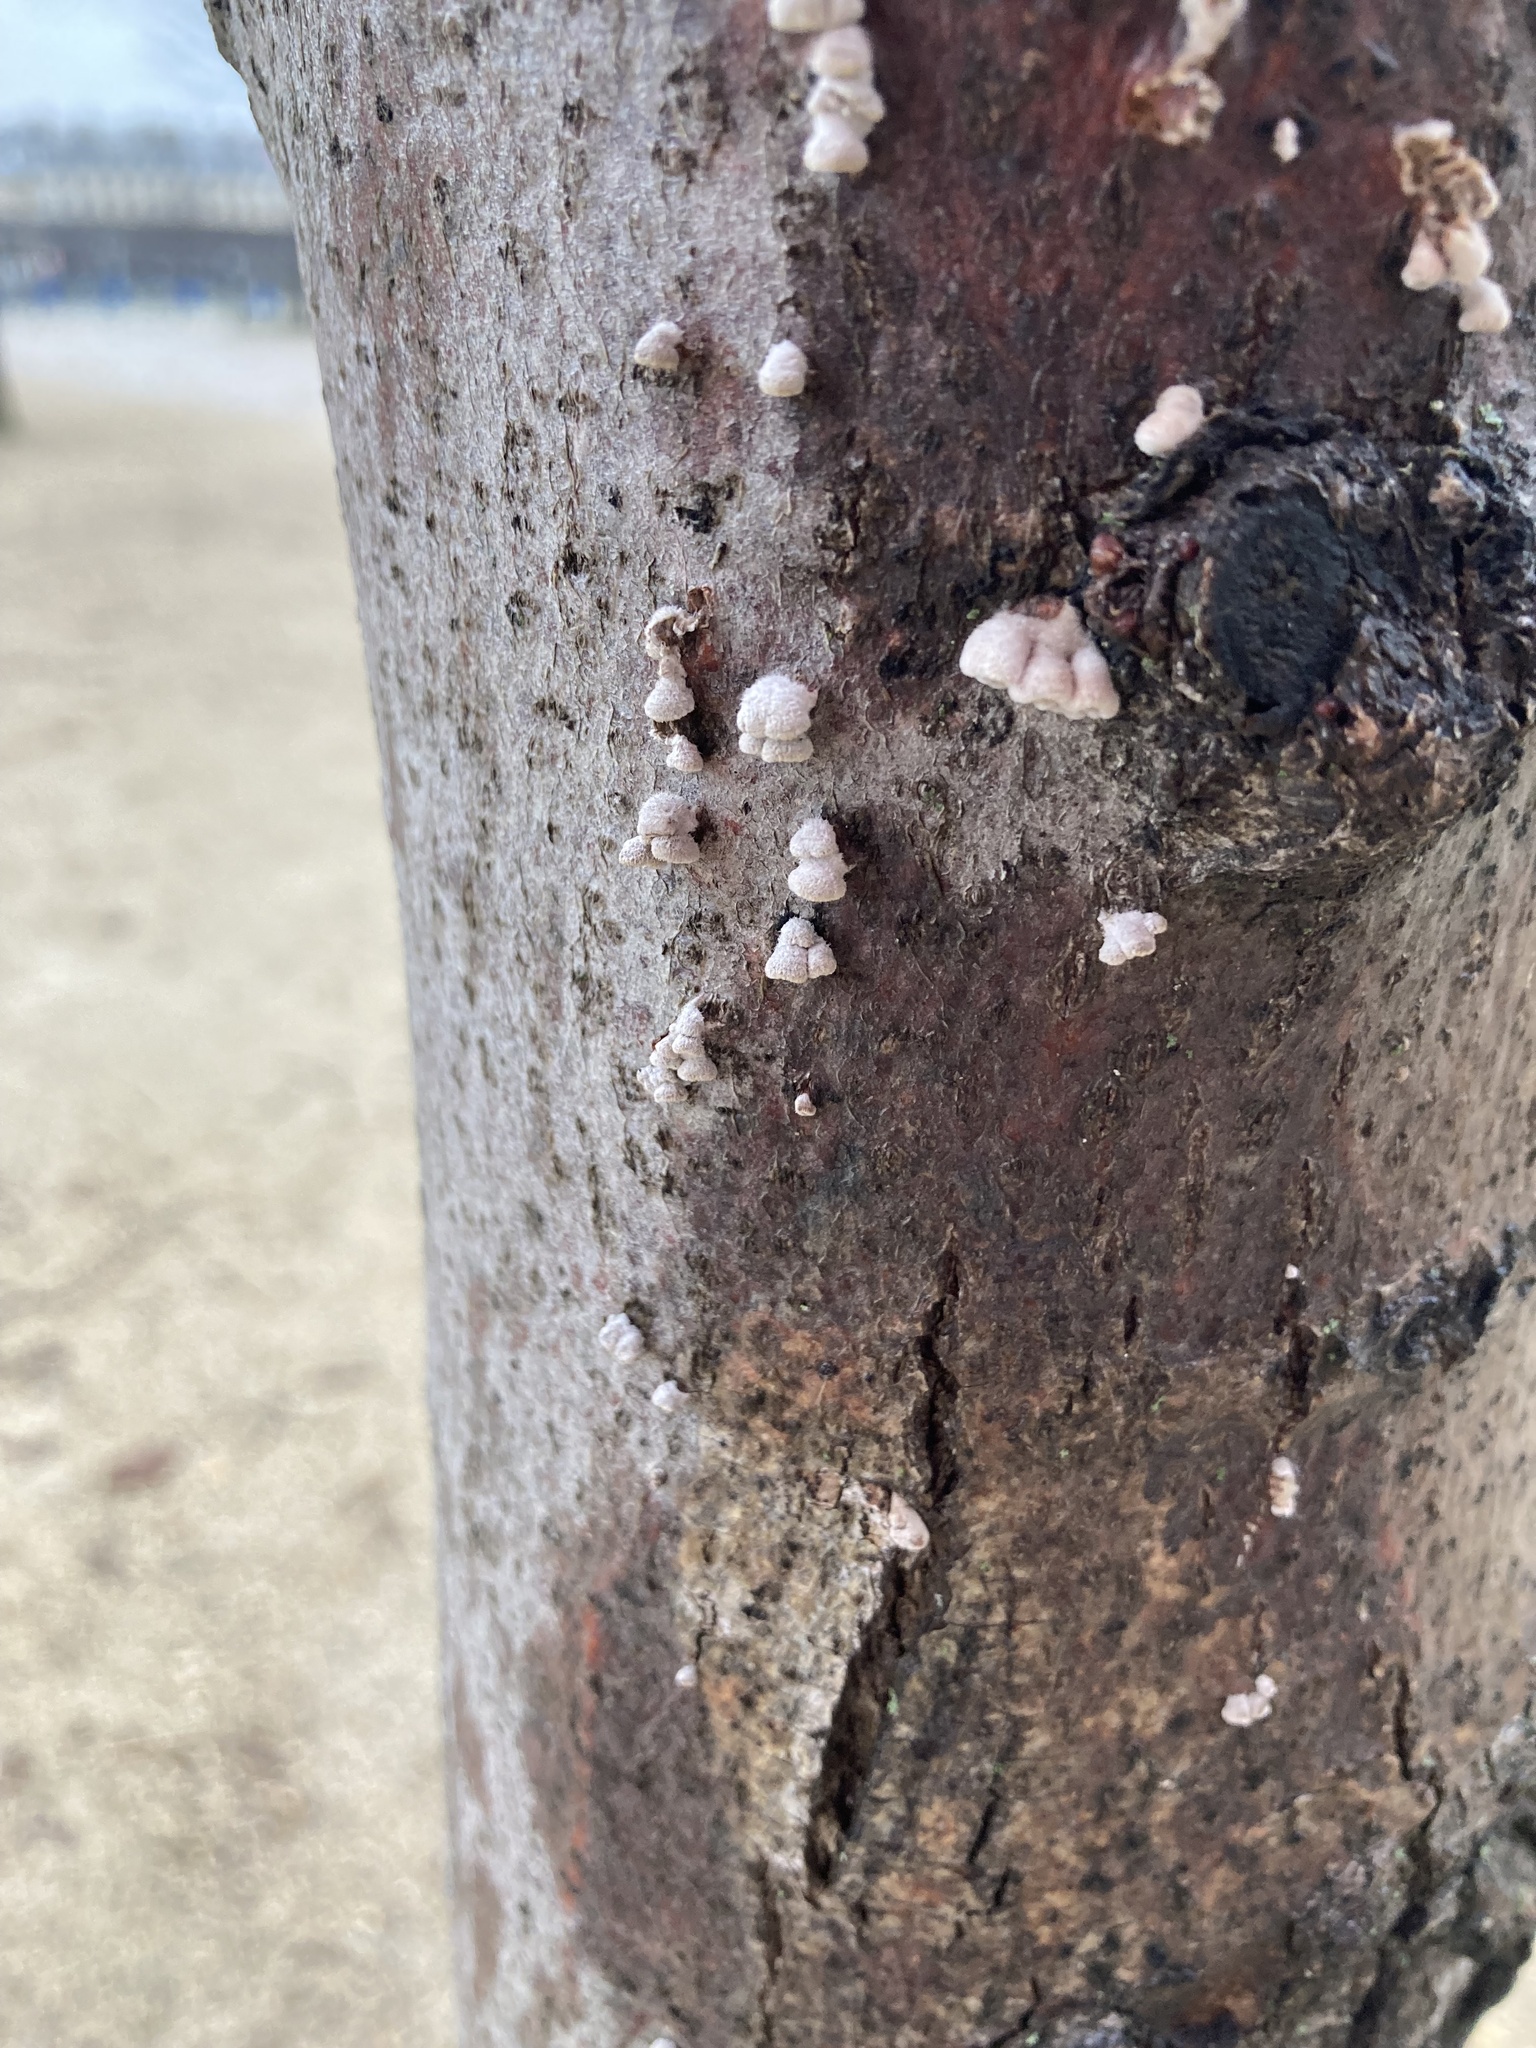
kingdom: Fungi
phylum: Basidiomycota
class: Agaricomycetes
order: Agaricales
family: Schizophyllaceae
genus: Schizophyllum
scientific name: Schizophyllum commune
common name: Common porecrust
